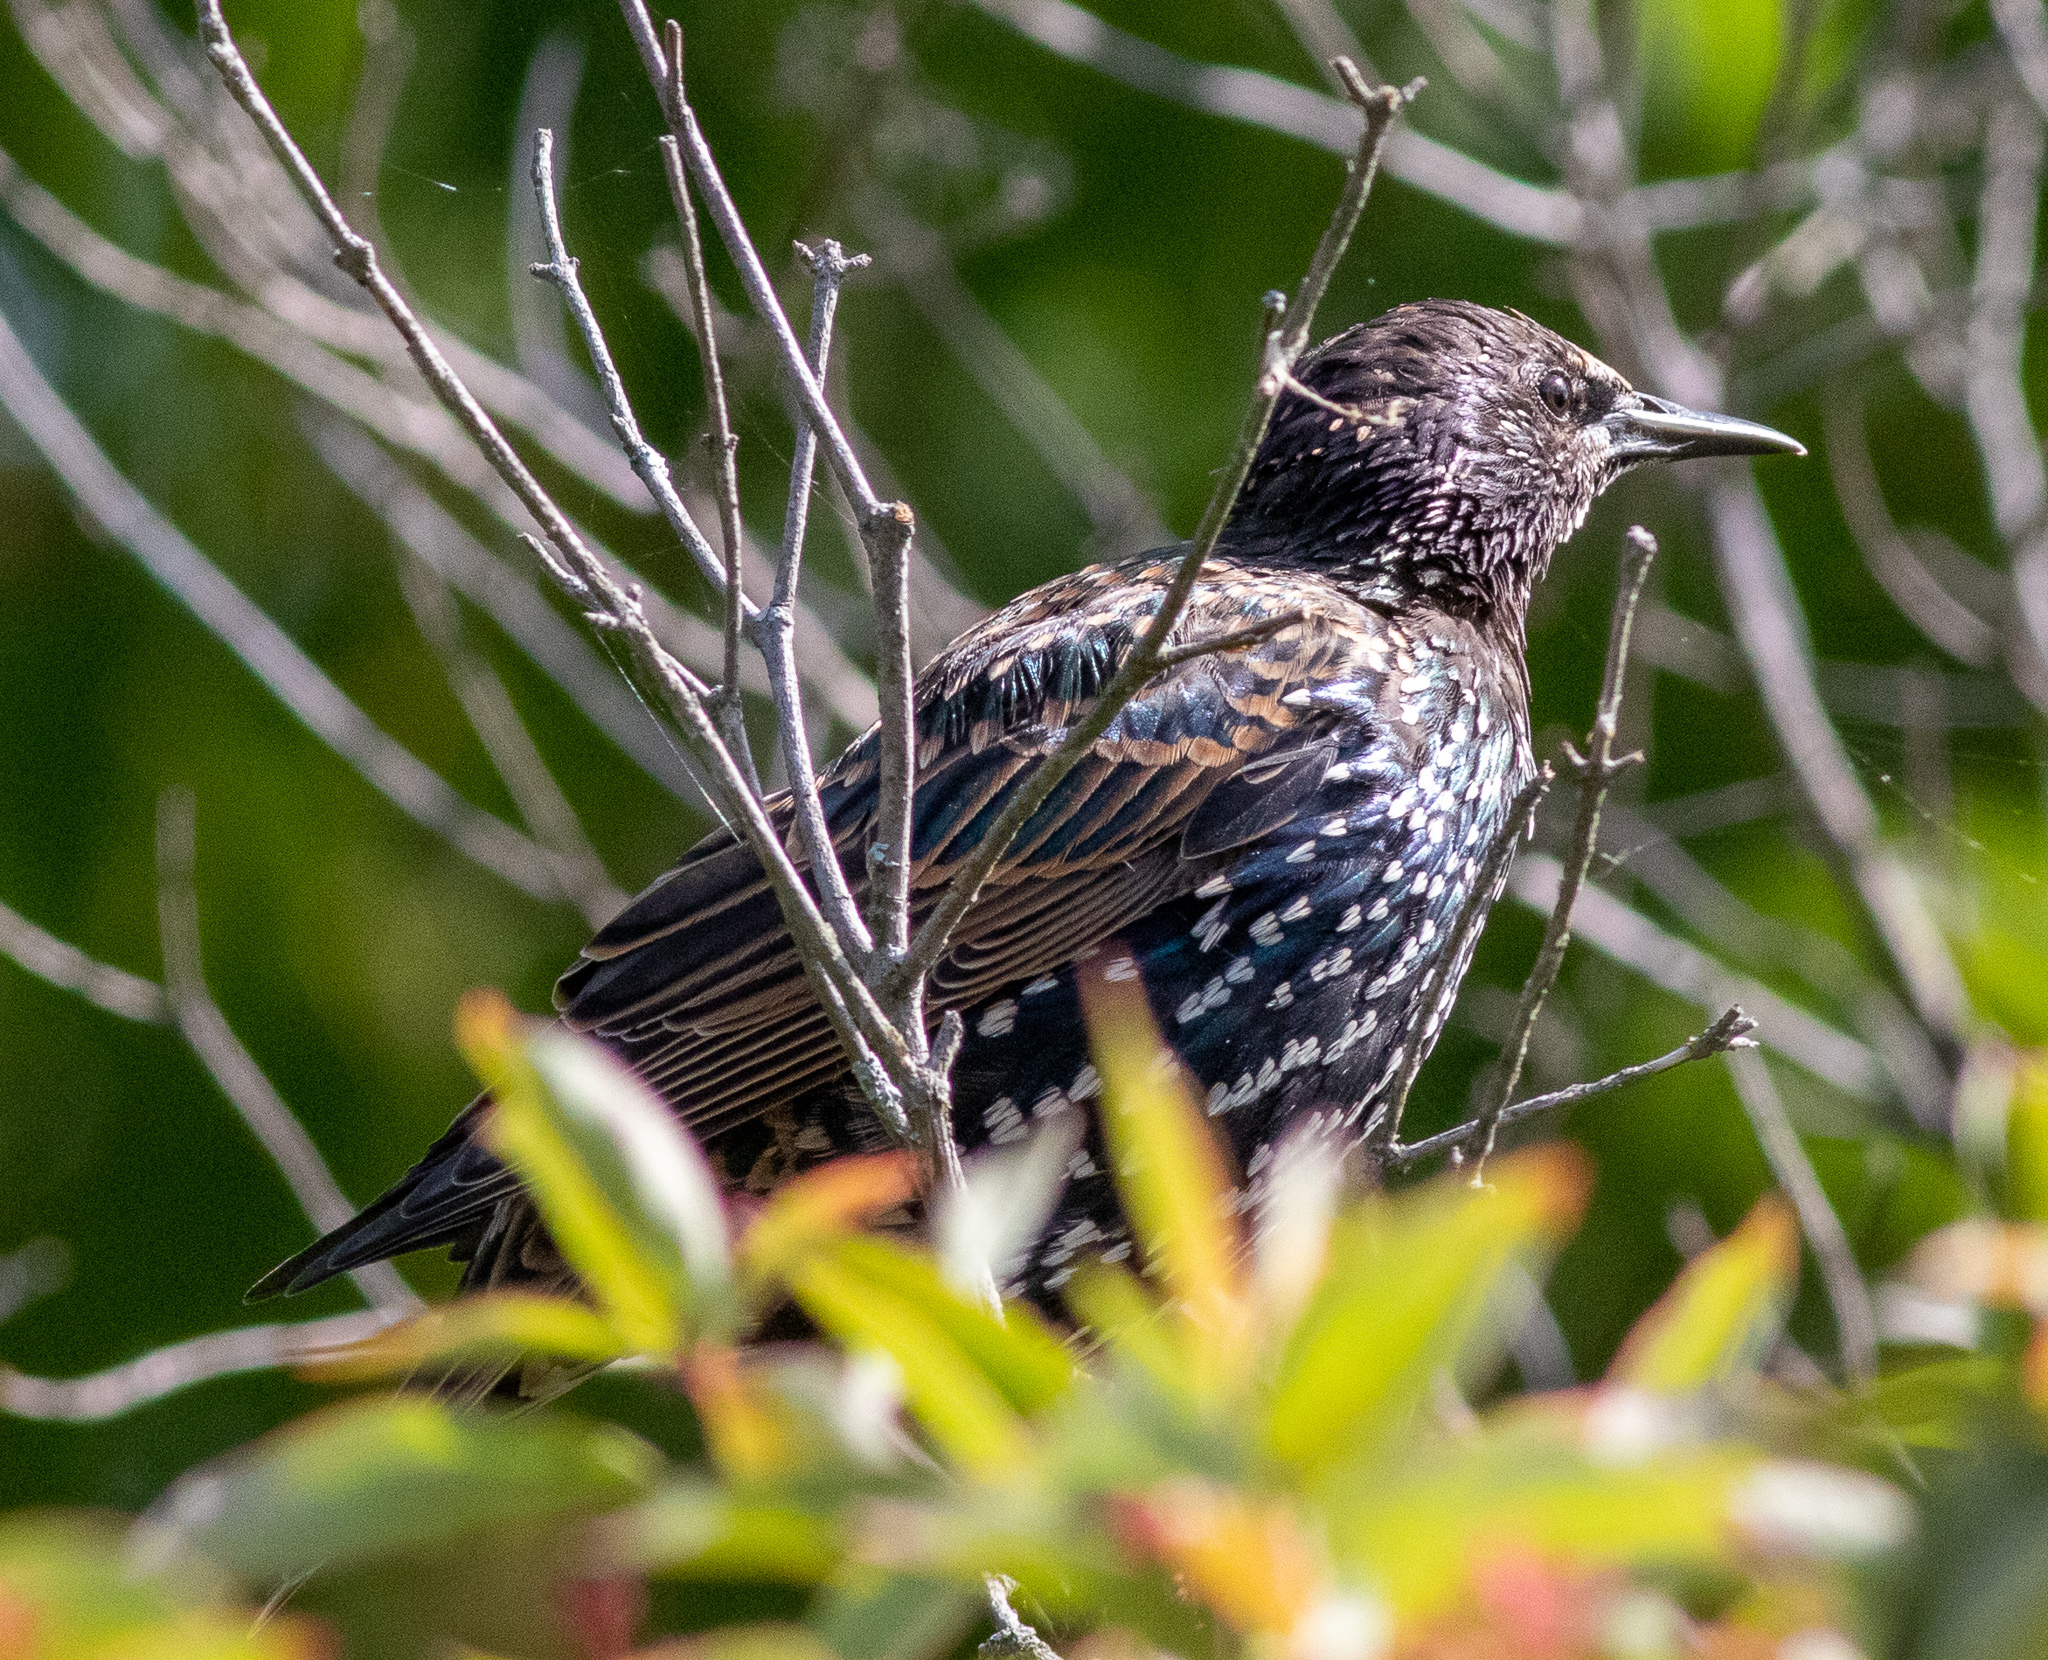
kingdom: Animalia
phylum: Chordata
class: Aves
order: Passeriformes
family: Sturnidae
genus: Sturnus
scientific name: Sturnus vulgaris
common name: Common starling
